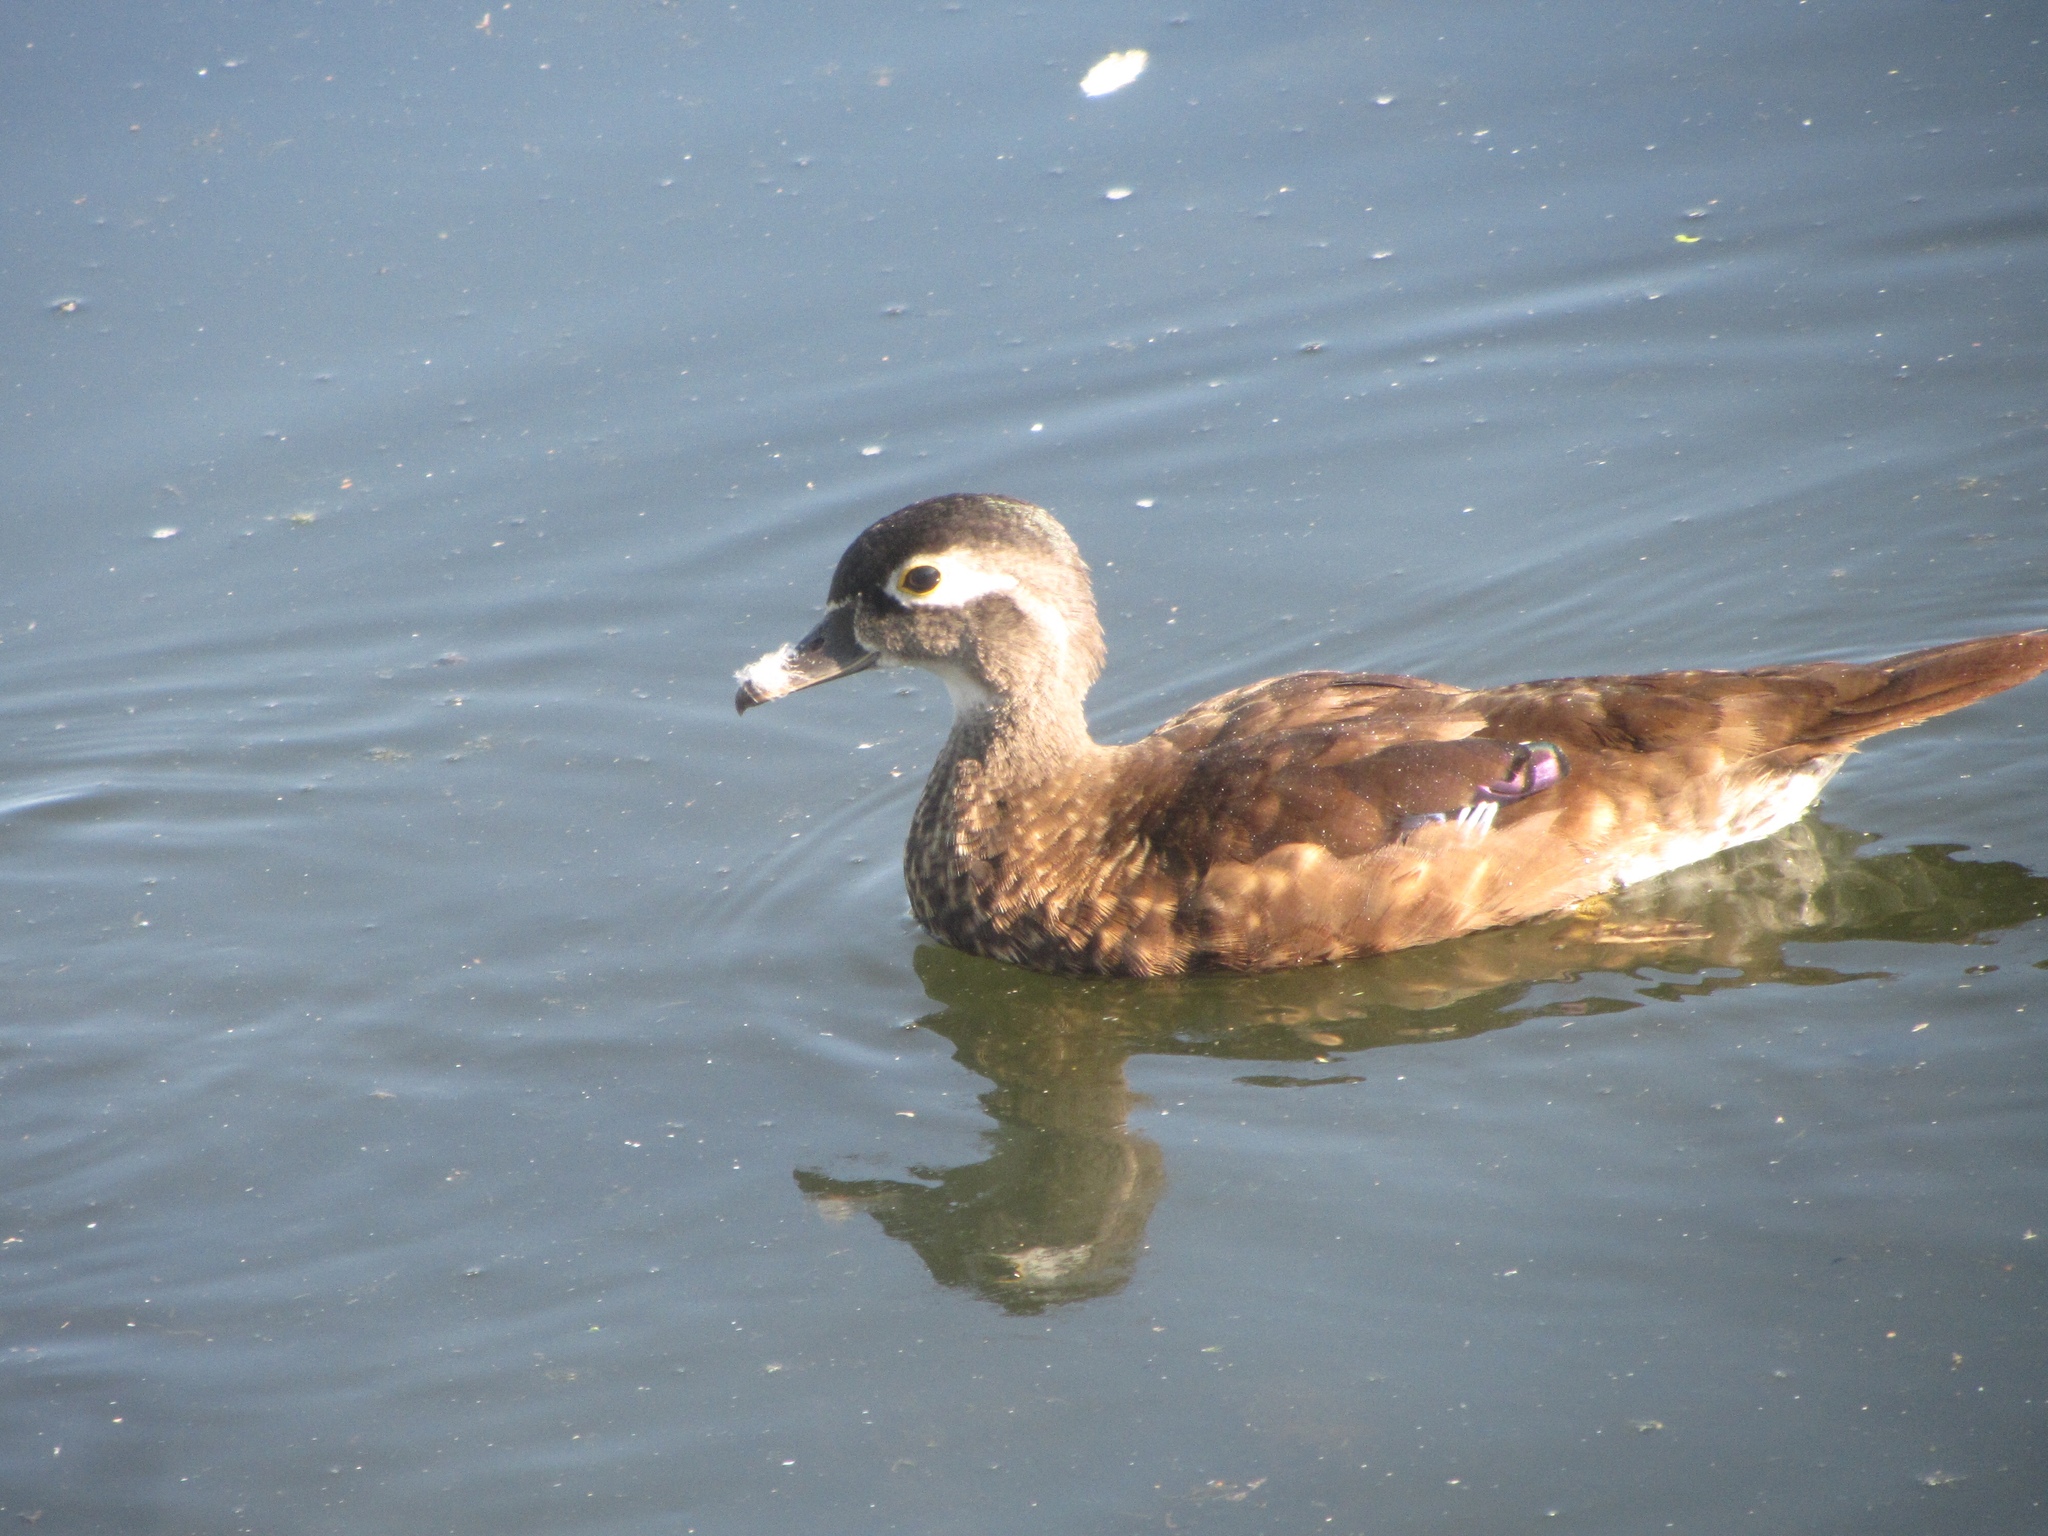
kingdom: Animalia
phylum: Chordata
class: Aves
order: Anseriformes
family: Anatidae
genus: Aix
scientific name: Aix sponsa
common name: Wood duck
